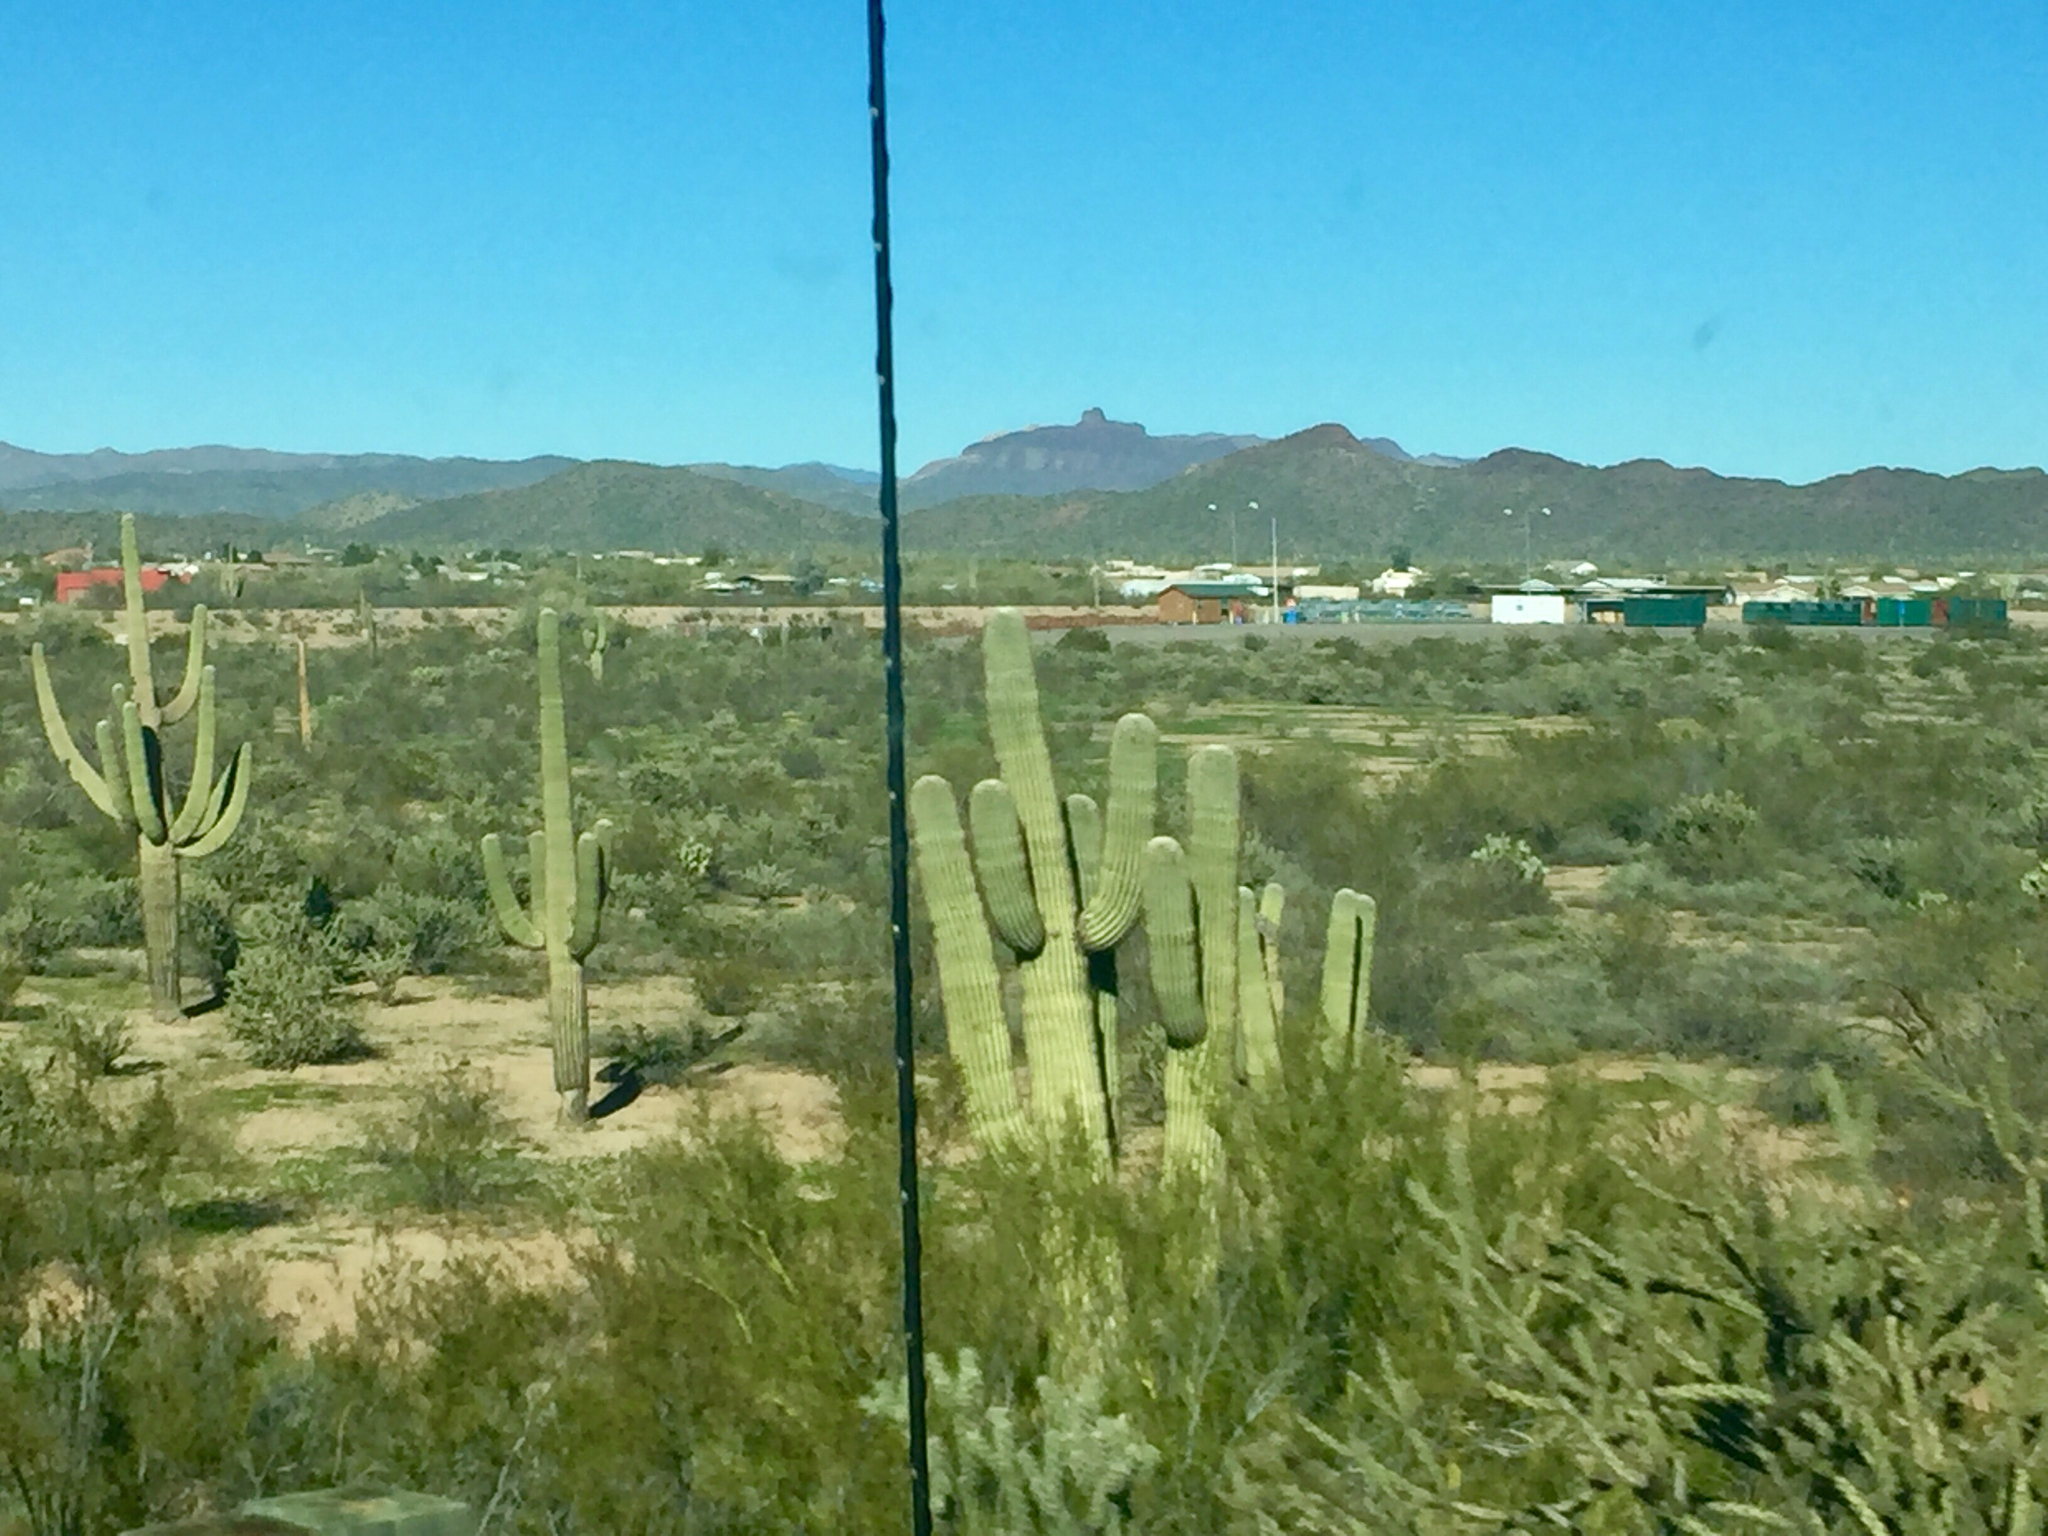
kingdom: Plantae
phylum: Tracheophyta
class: Magnoliopsida
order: Caryophyllales
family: Cactaceae
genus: Carnegiea
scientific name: Carnegiea gigantea
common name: Saguaro
